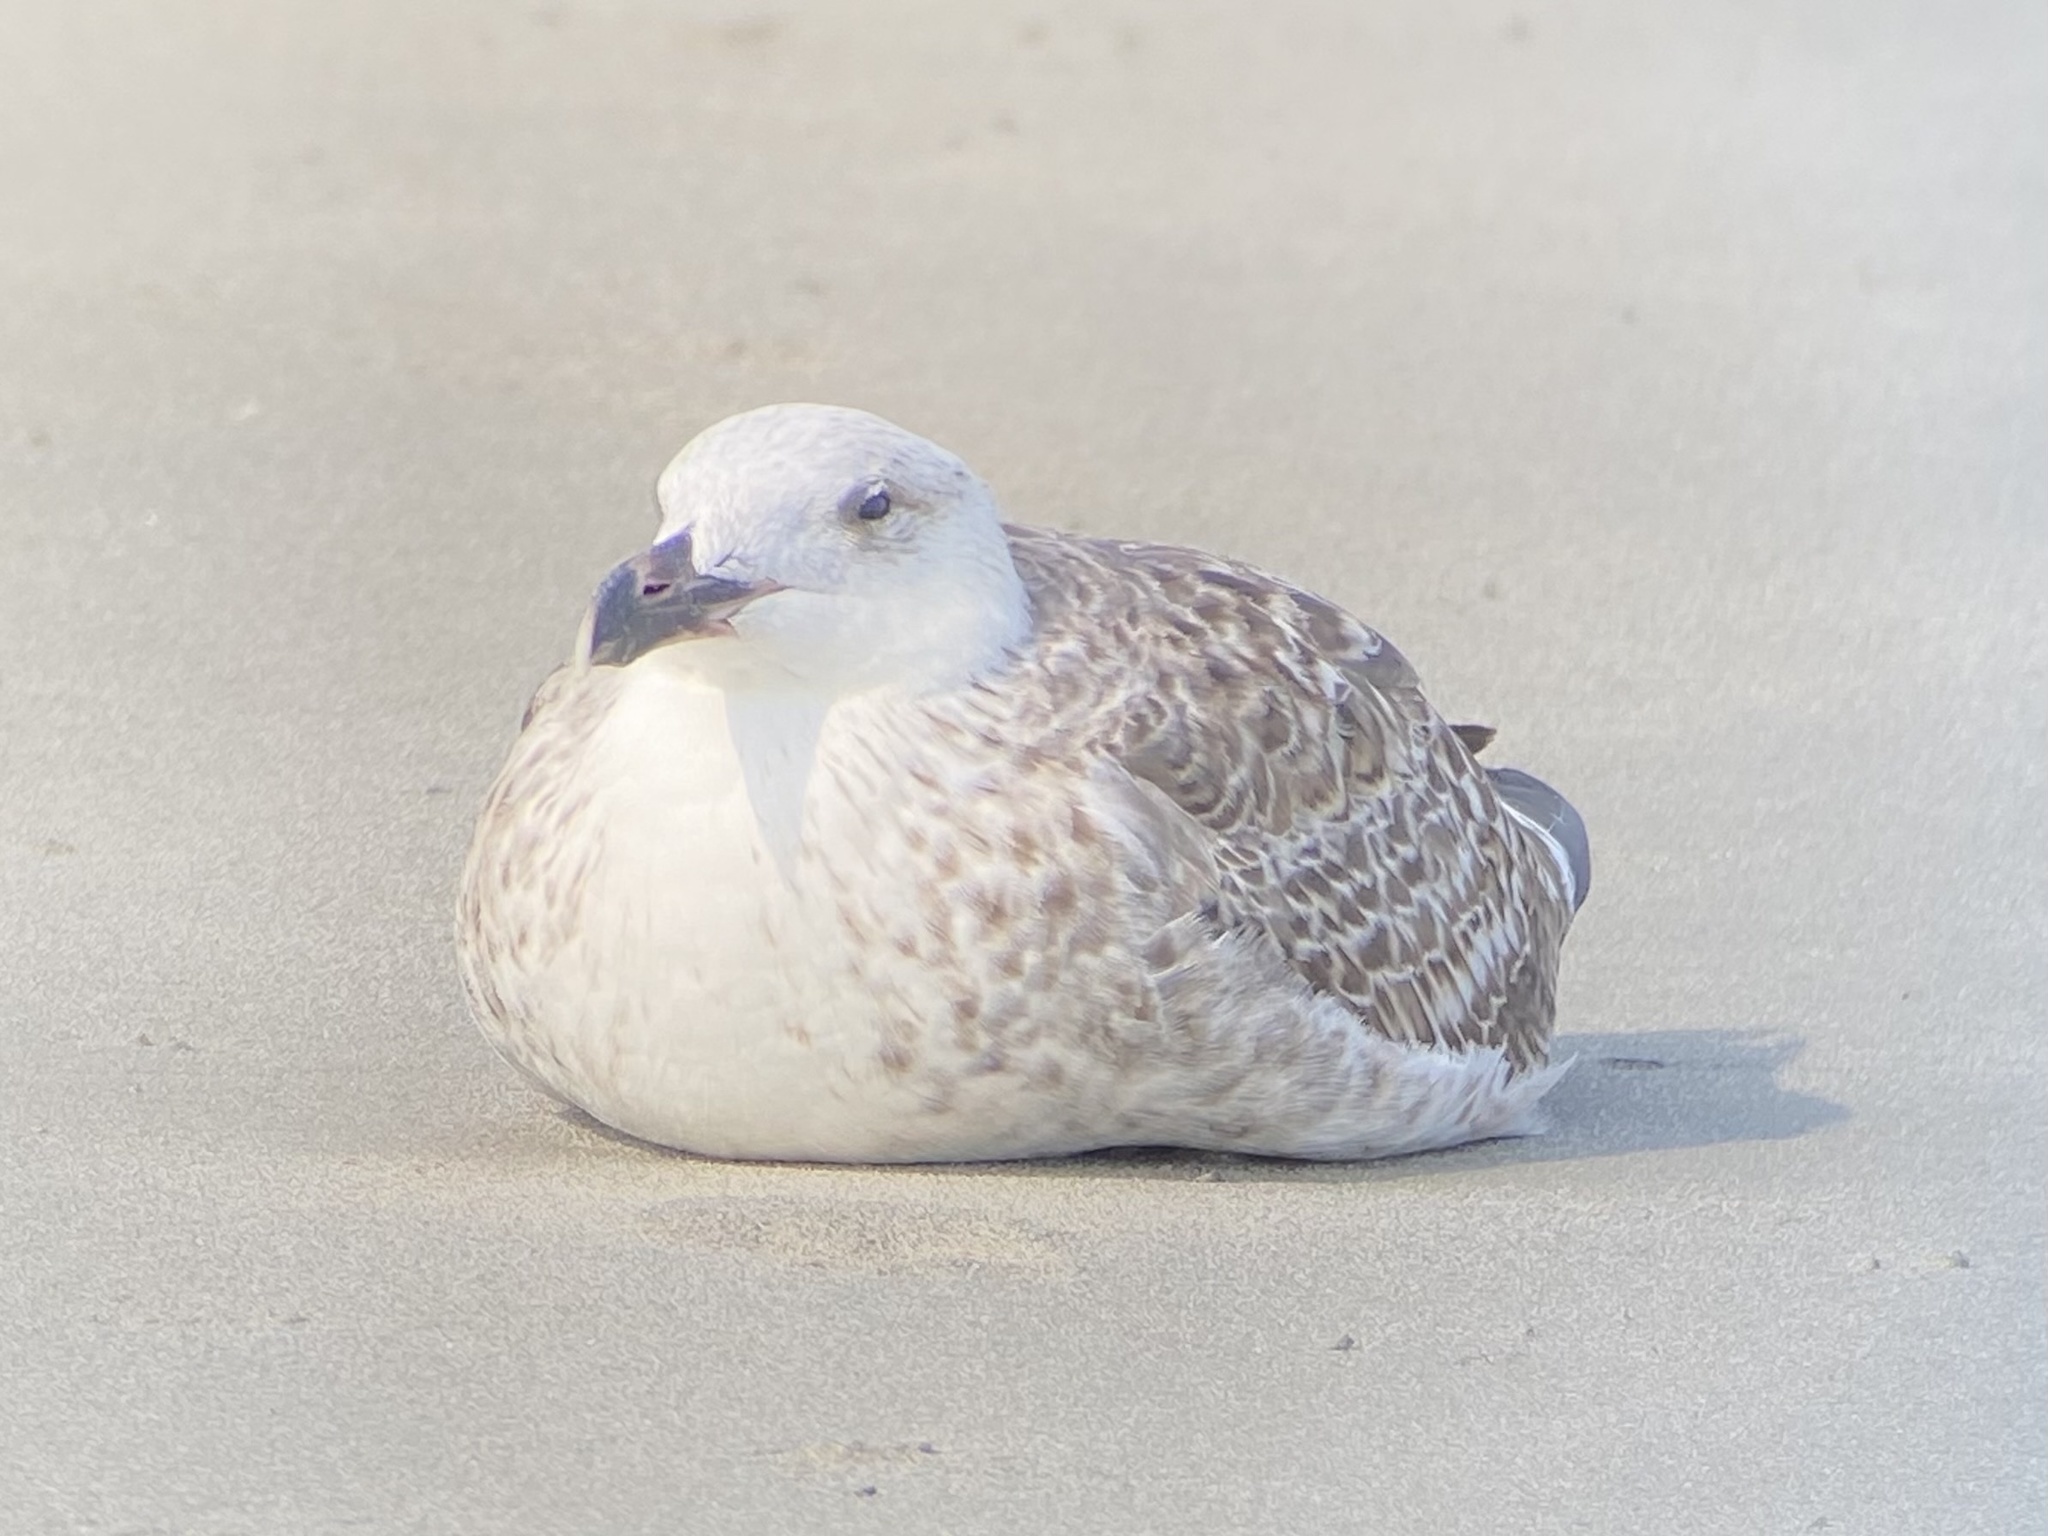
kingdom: Animalia
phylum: Chordata
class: Aves
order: Charadriiformes
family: Laridae
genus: Larus
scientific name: Larus marinus
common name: Great black-backed gull
